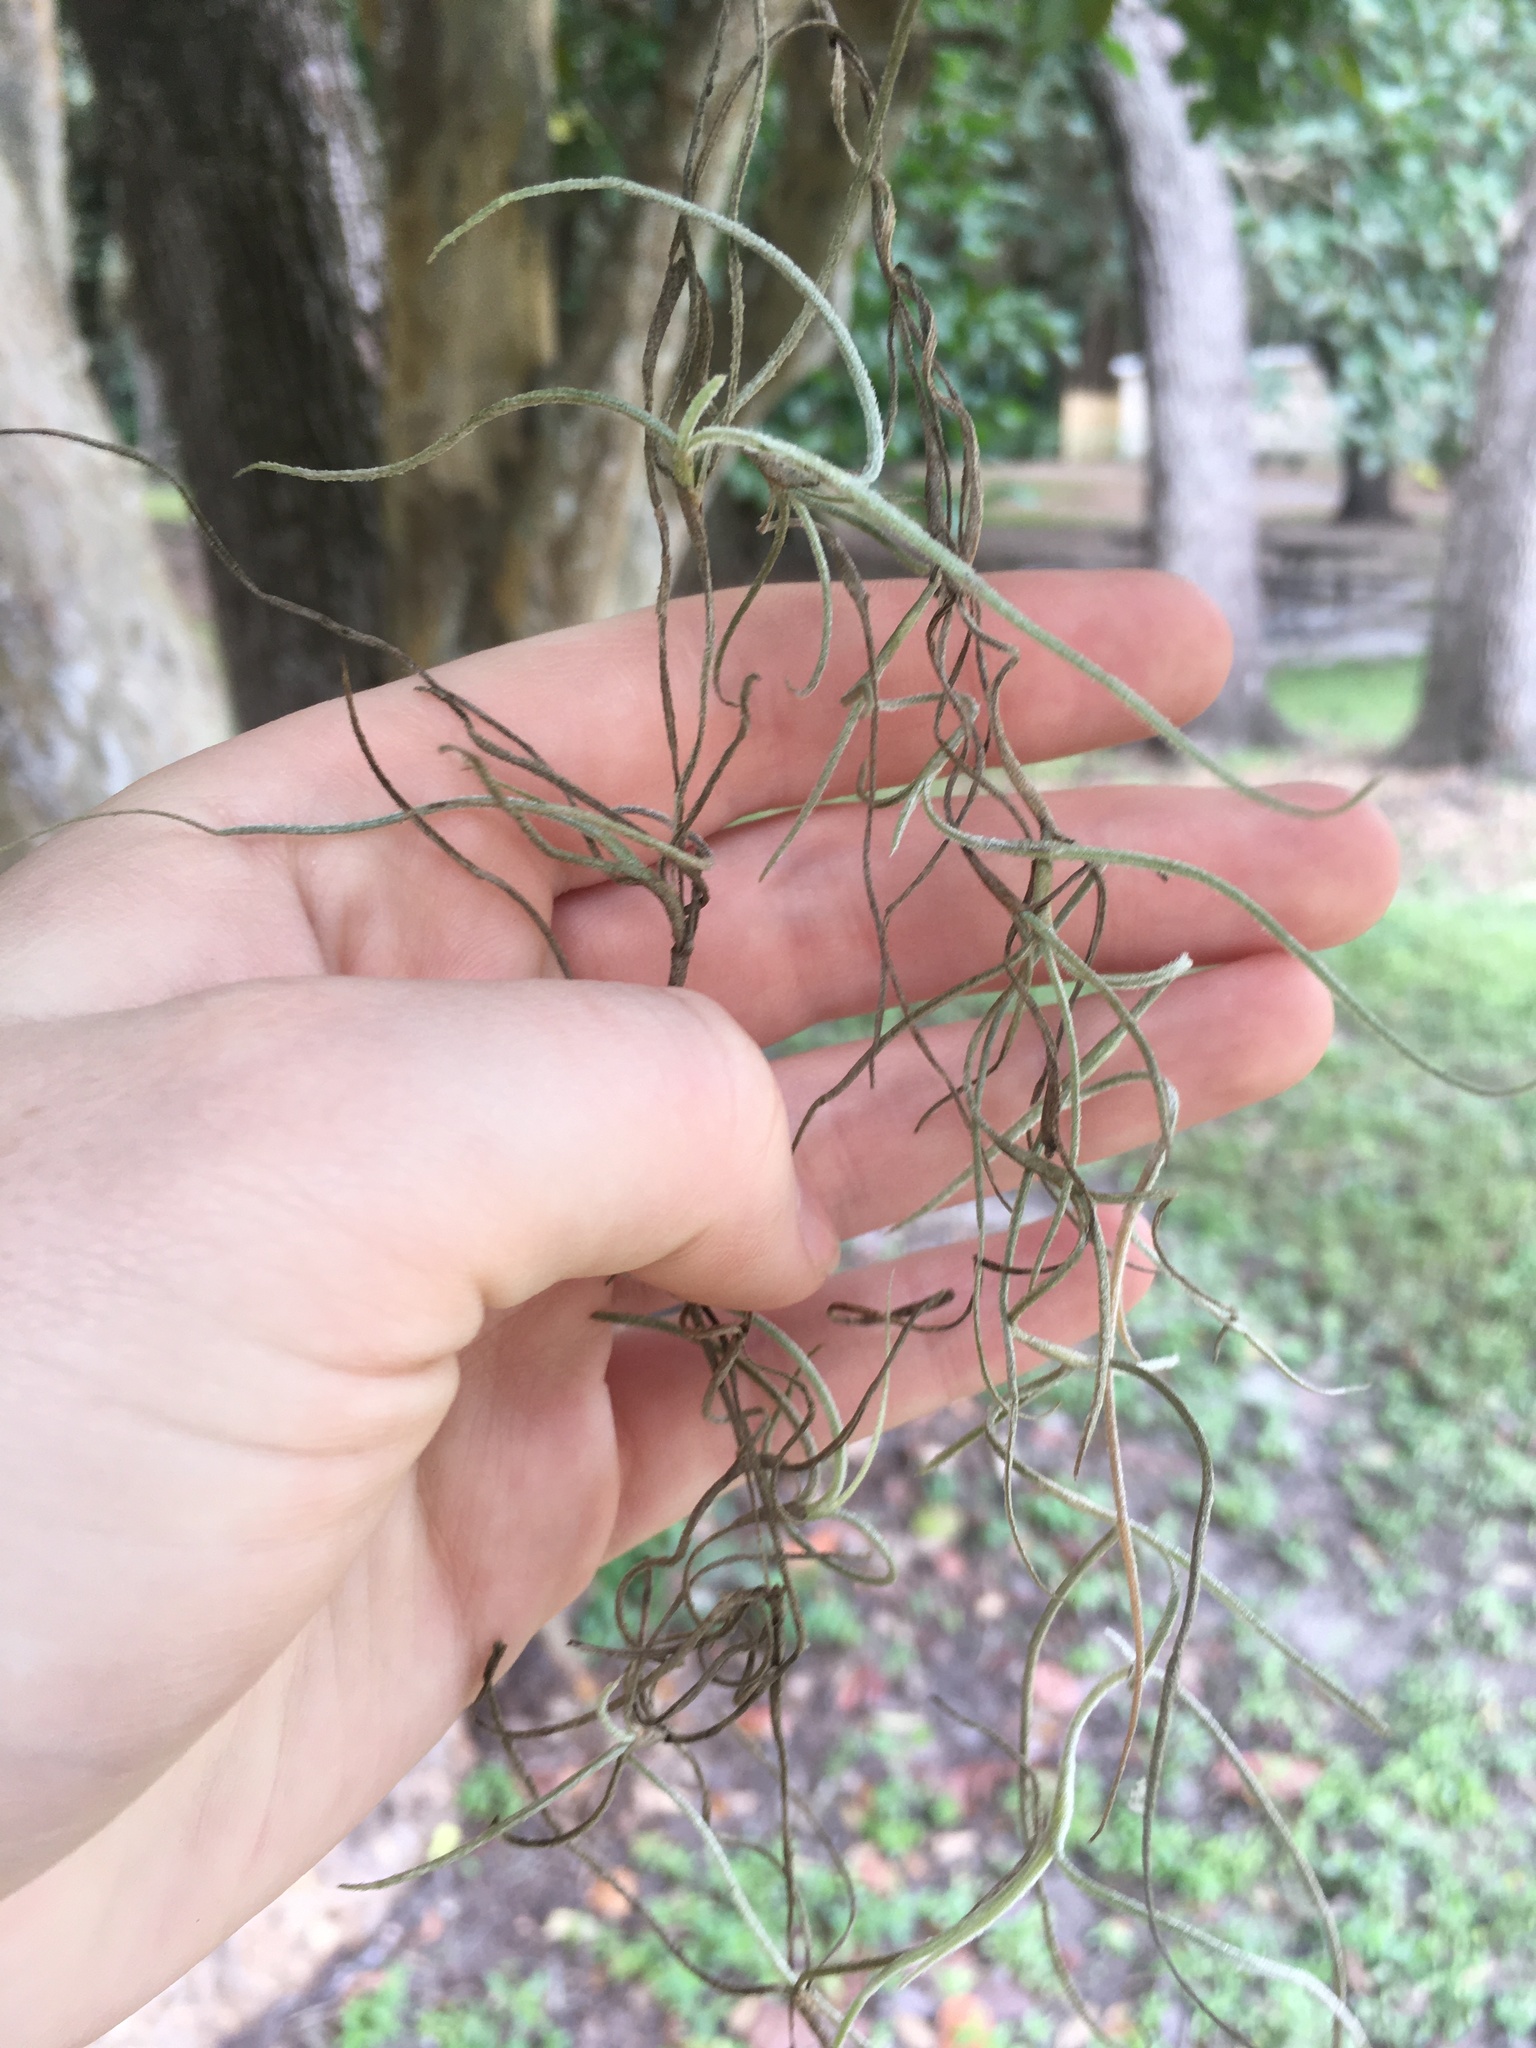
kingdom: Plantae
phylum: Tracheophyta
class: Liliopsida
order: Poales
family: Bromeliaceae
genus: Tillandsia
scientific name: Tillandsia usneoides
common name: Spanish moss
